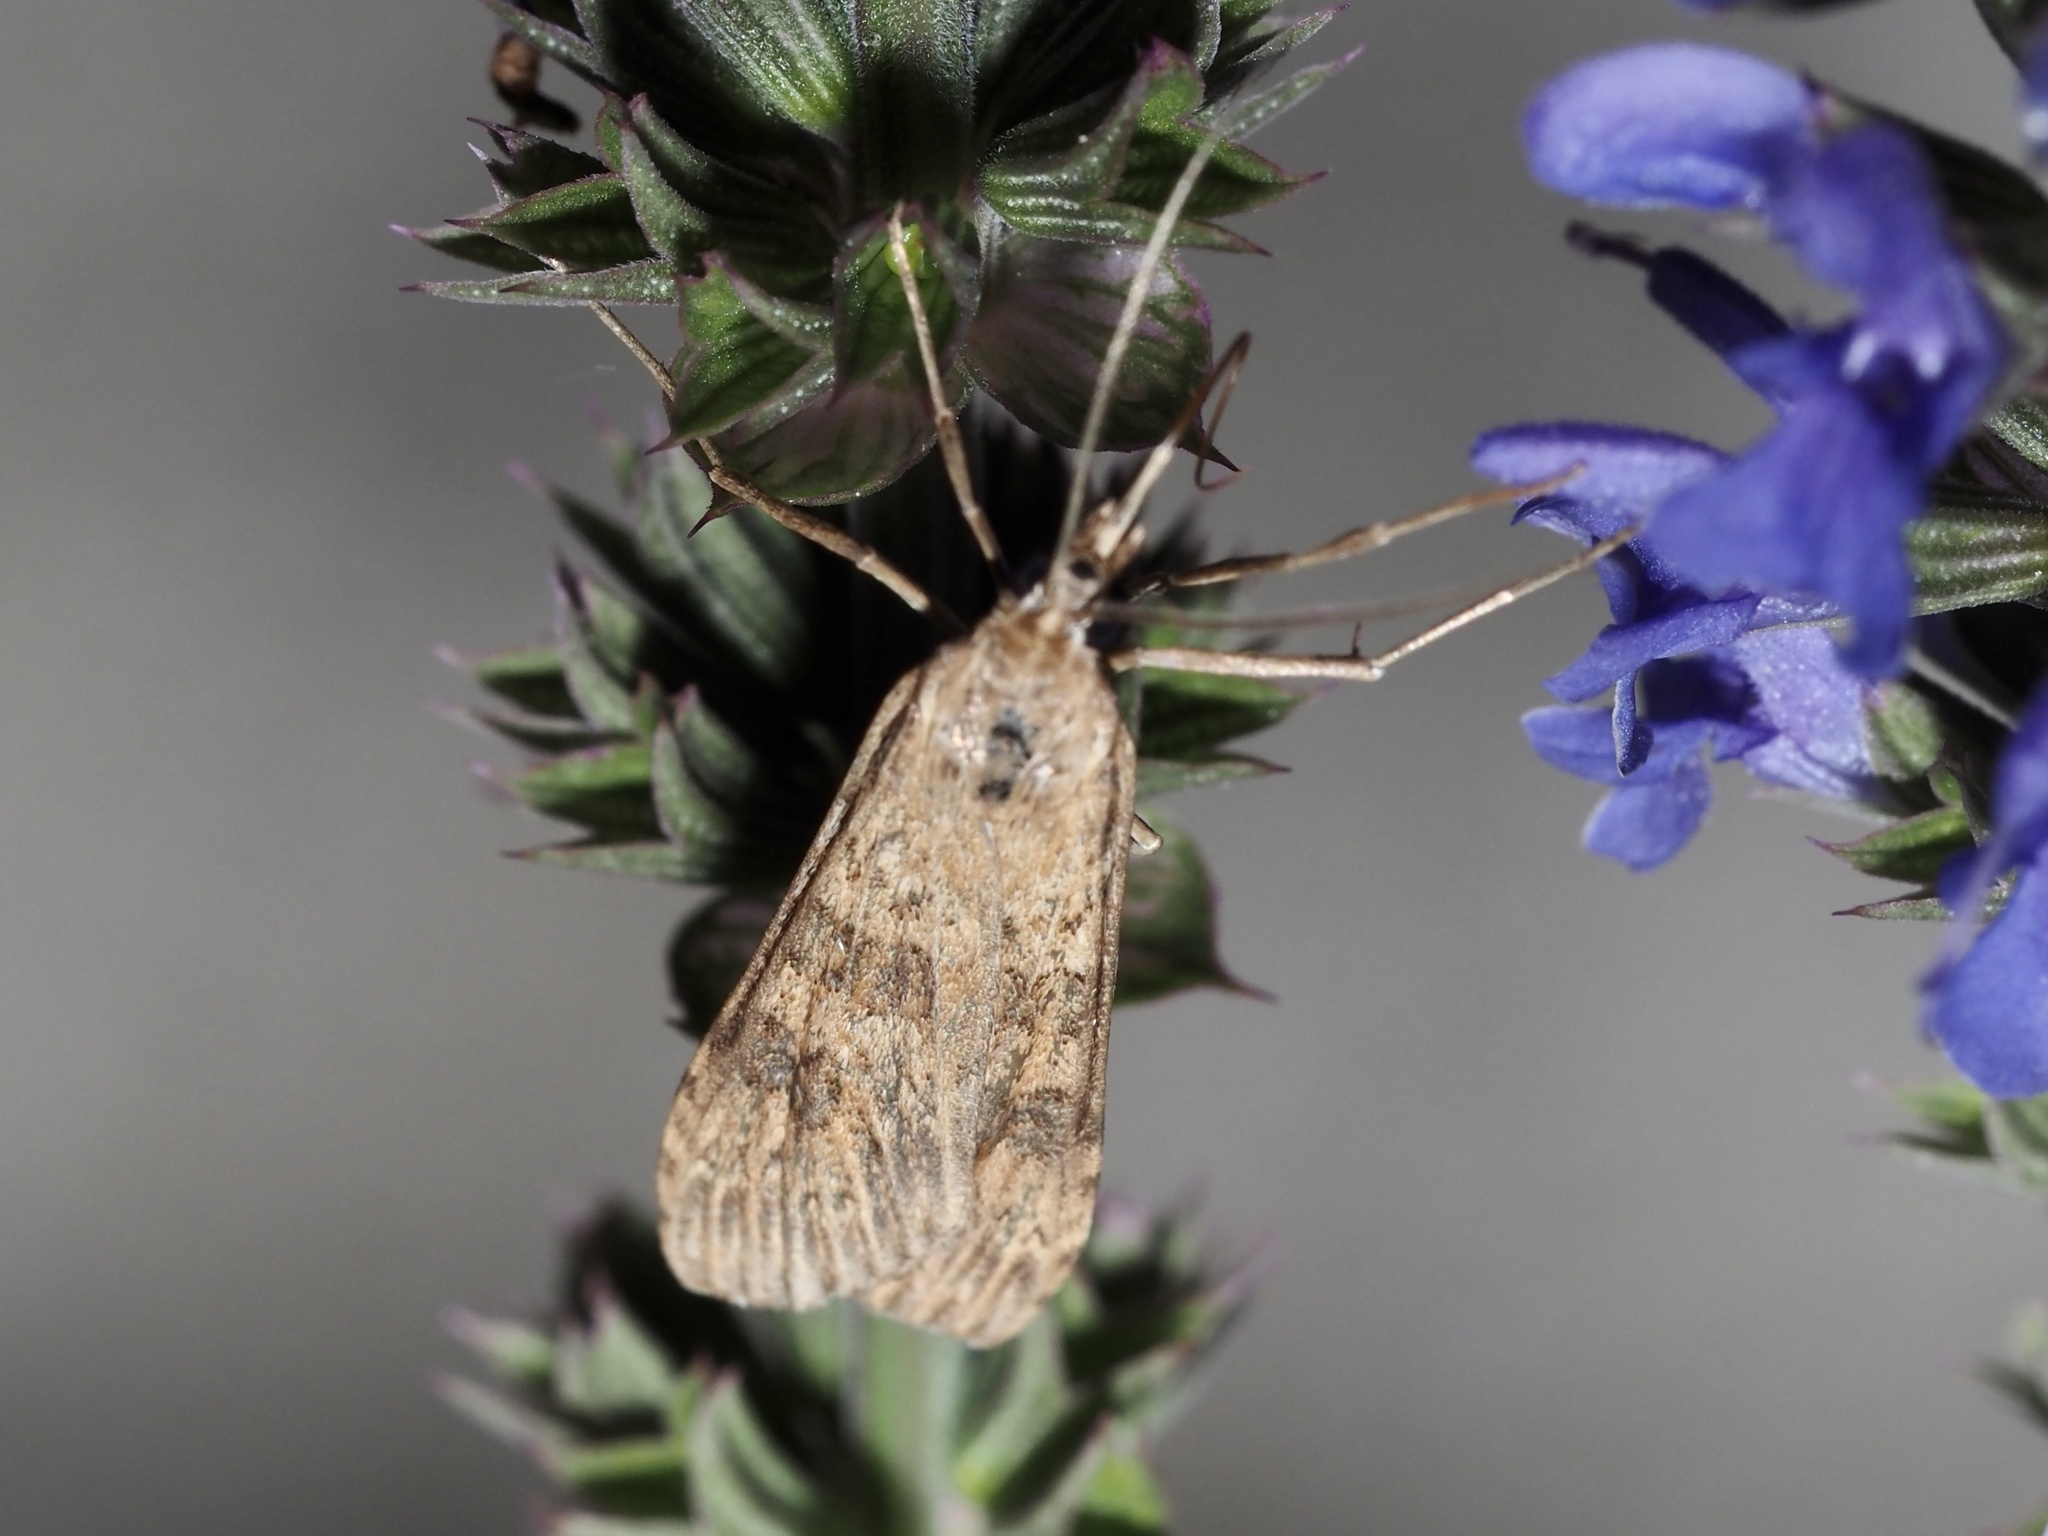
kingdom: Animalia
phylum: Arthropoda
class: Insecta
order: Lepidoptera
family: Crambidae
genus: Nomophila
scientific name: Nomophila nearctica
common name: American rush veneer
